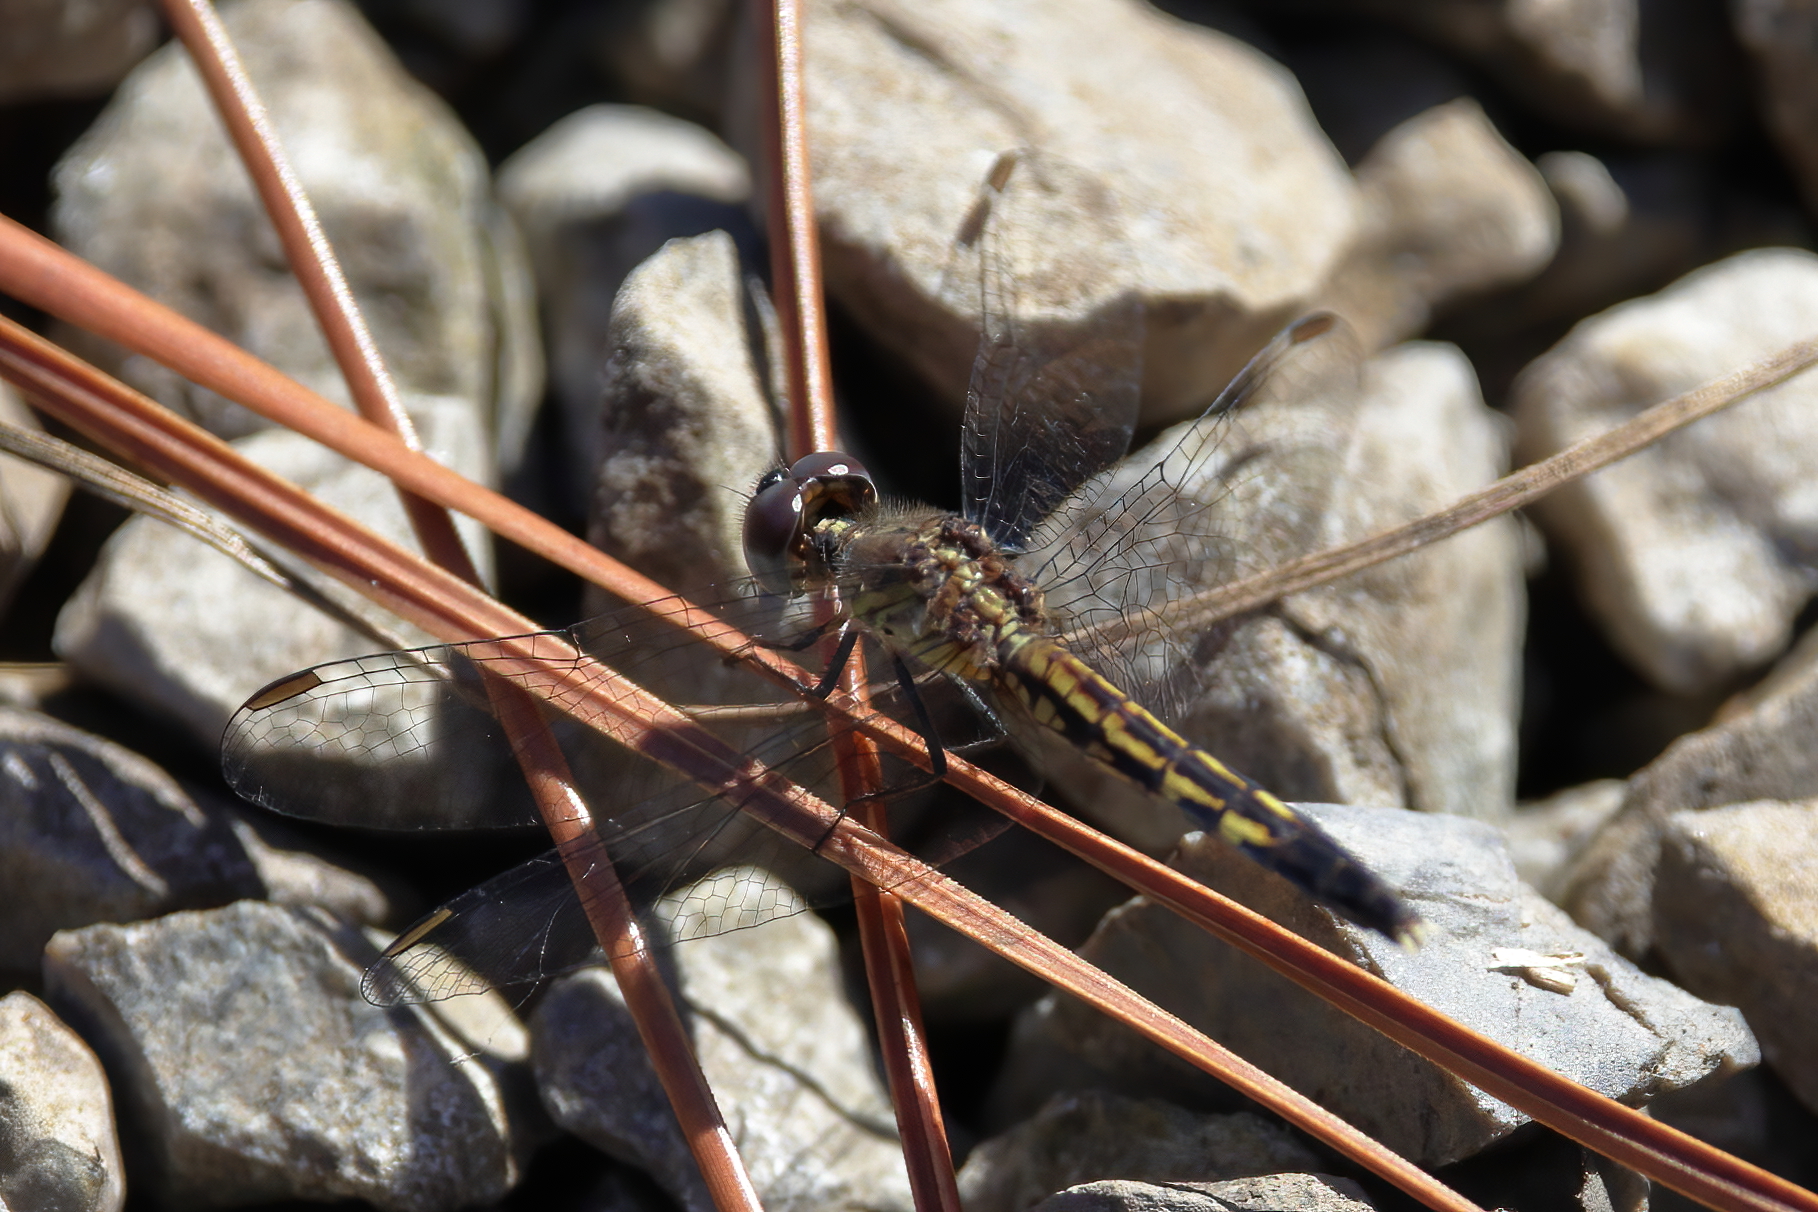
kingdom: Animalia
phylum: Arthropoda
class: Insecta
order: Odonata
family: Libellulidae
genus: Erythrodiplax
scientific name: Erythrodiplax minuscula
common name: Little blue dragonlet
